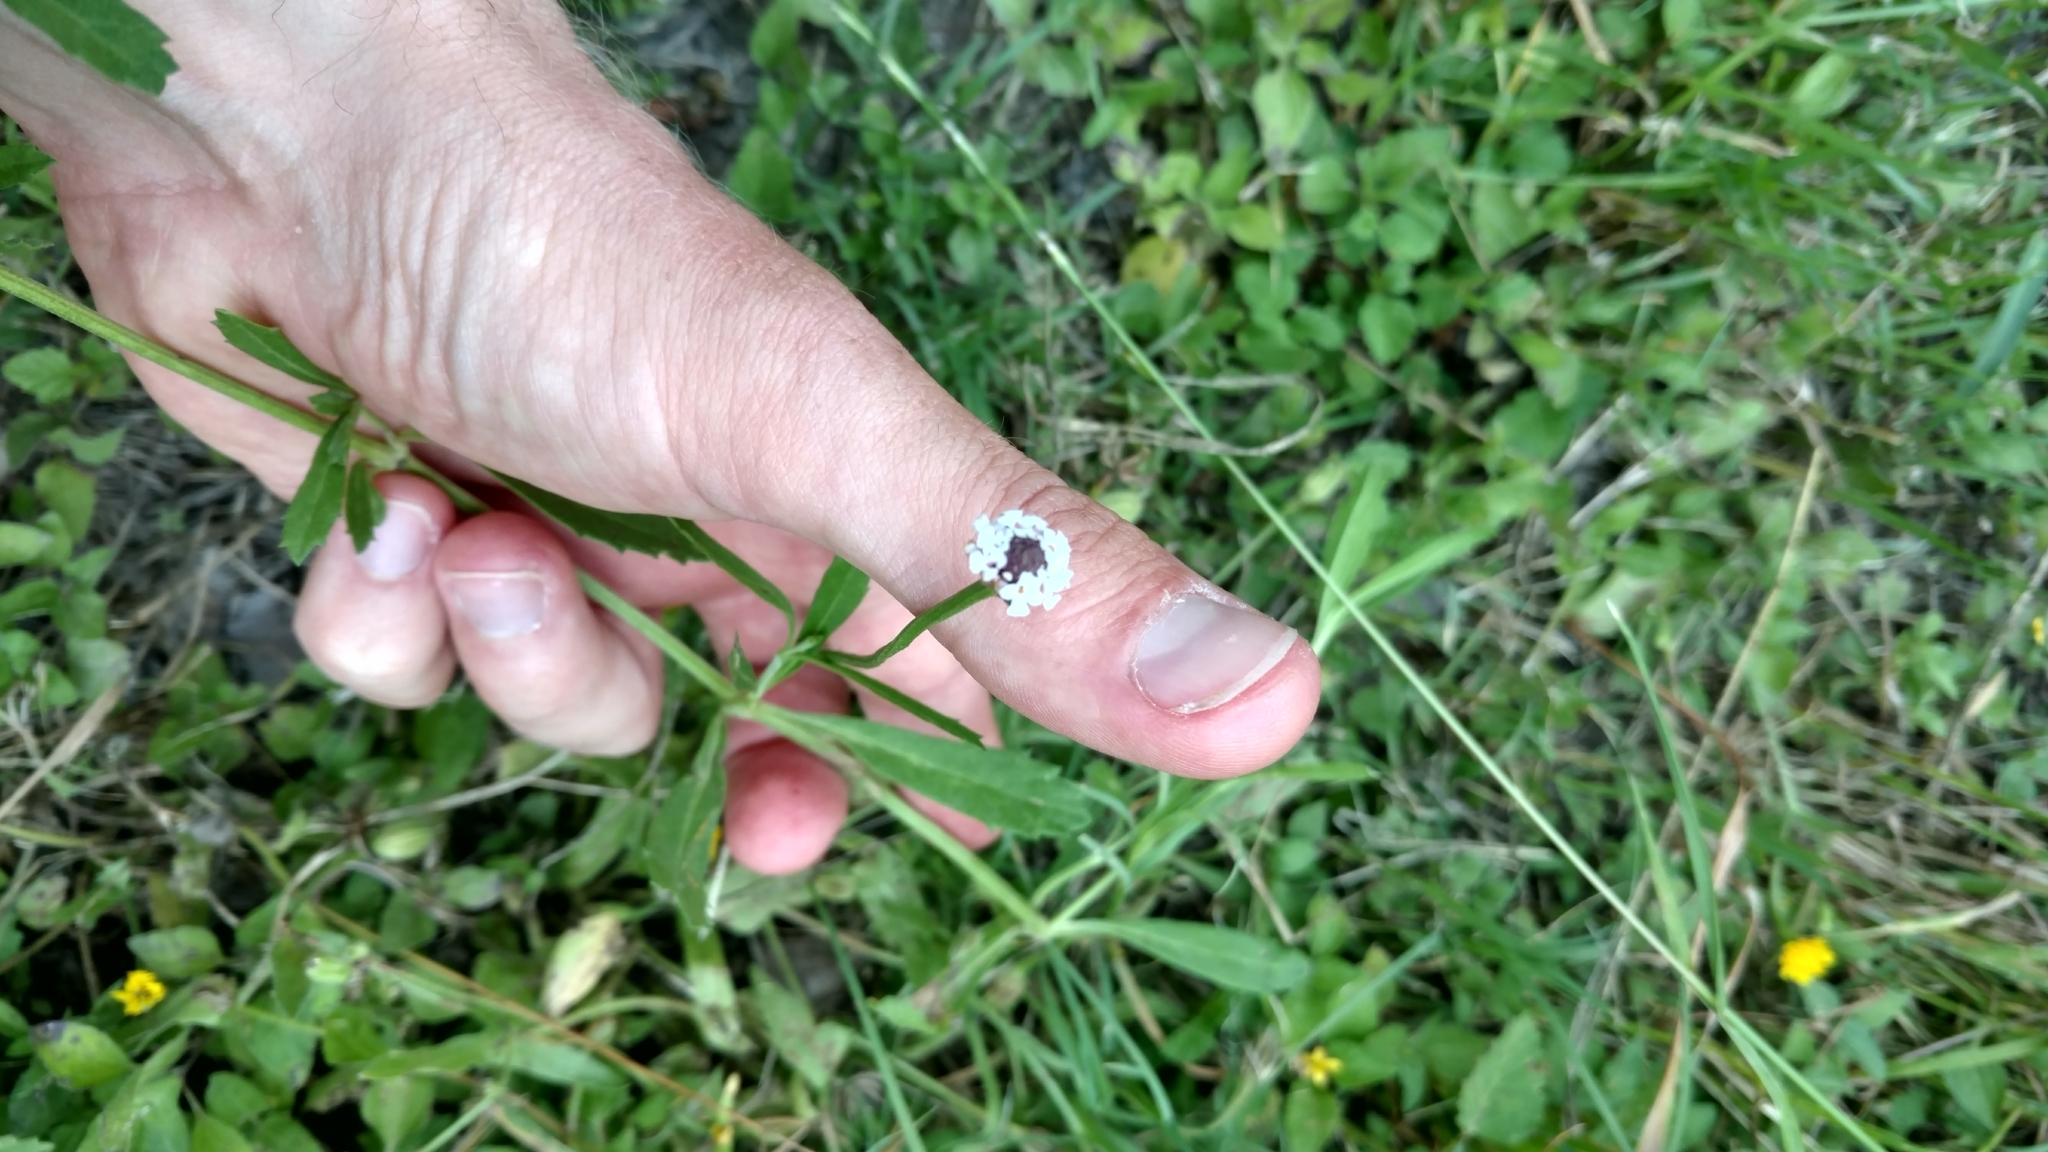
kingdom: Plantae
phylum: Tracheophyta
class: Magnoliopsida
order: Lamiales
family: Verbenaceae
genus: Phyla
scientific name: Phyla nodiflora
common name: Frogfruit
